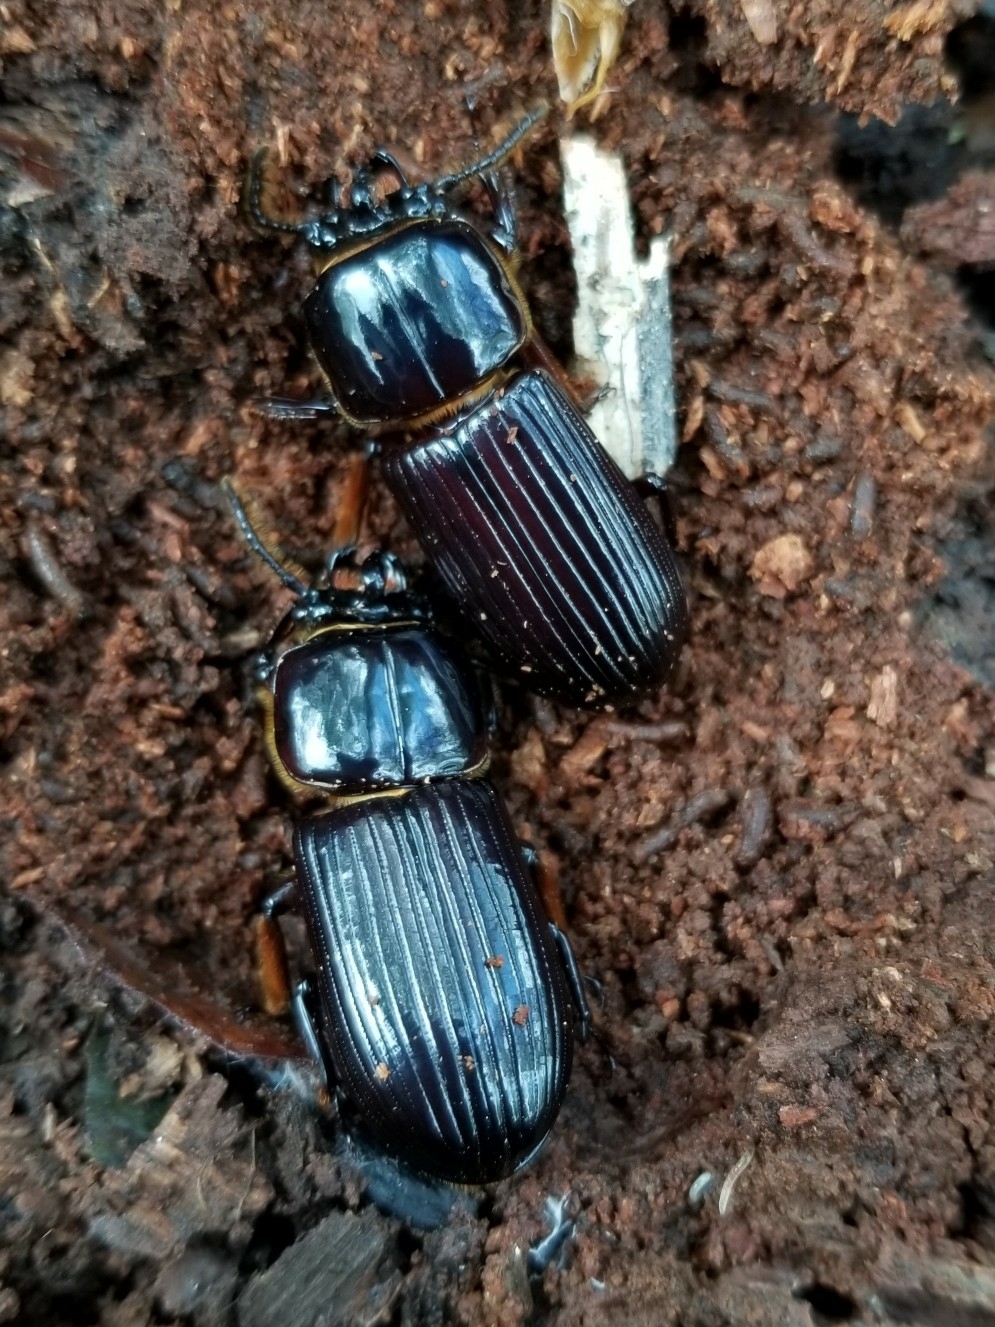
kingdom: Animalia
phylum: Arthropoda
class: Insecta
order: Coleoptera
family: Passalidae
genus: Odontotaenius
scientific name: Odontotaenius disjunctus
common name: Patent leather beetle
